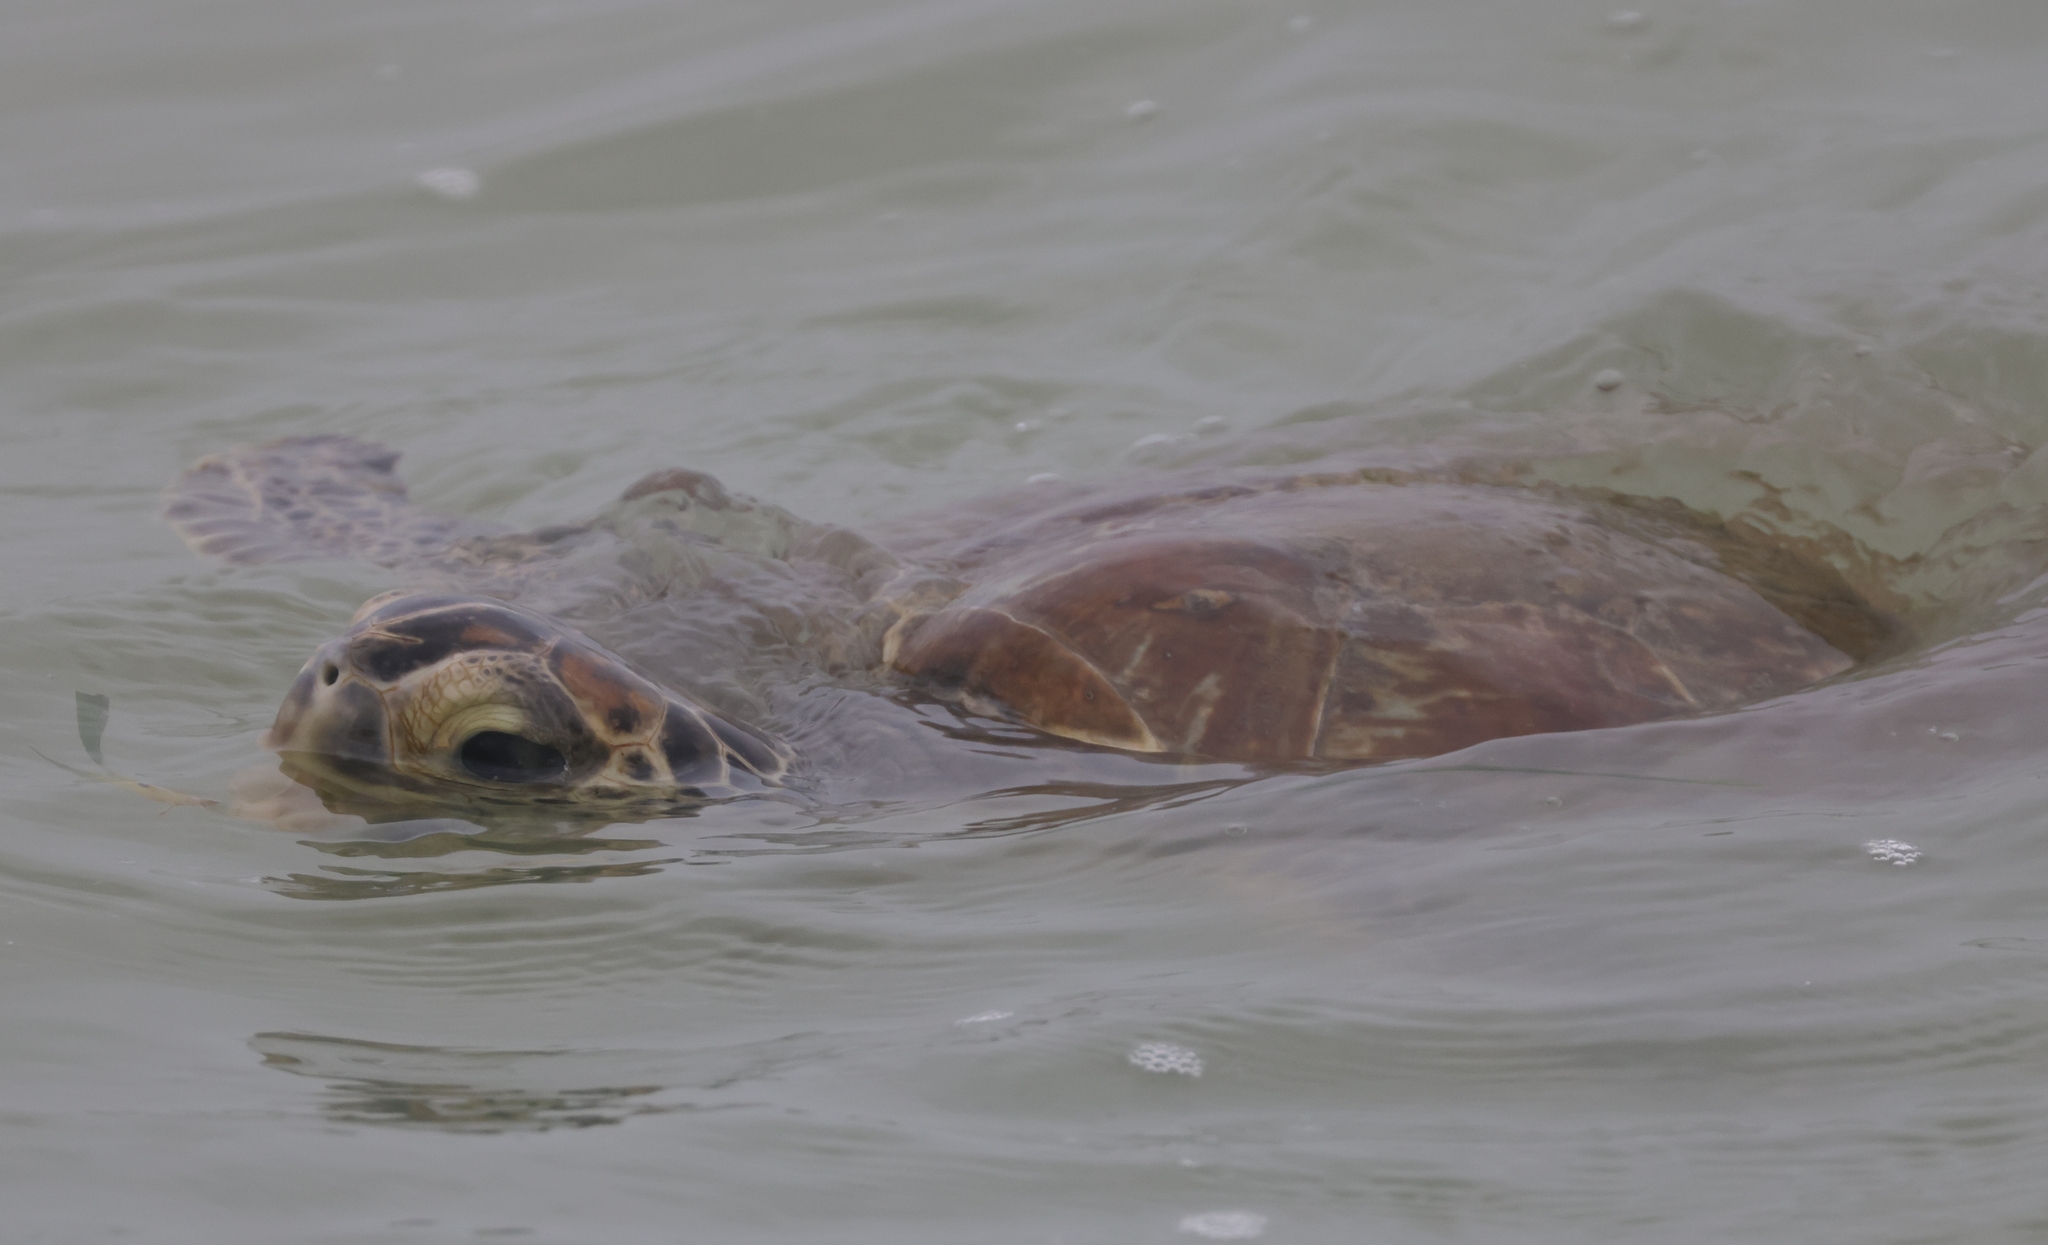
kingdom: Animalia
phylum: Chordata
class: Testudines
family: Cheloniidae
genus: Chelonia
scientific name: Chelonia mydas
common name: Green turtle
